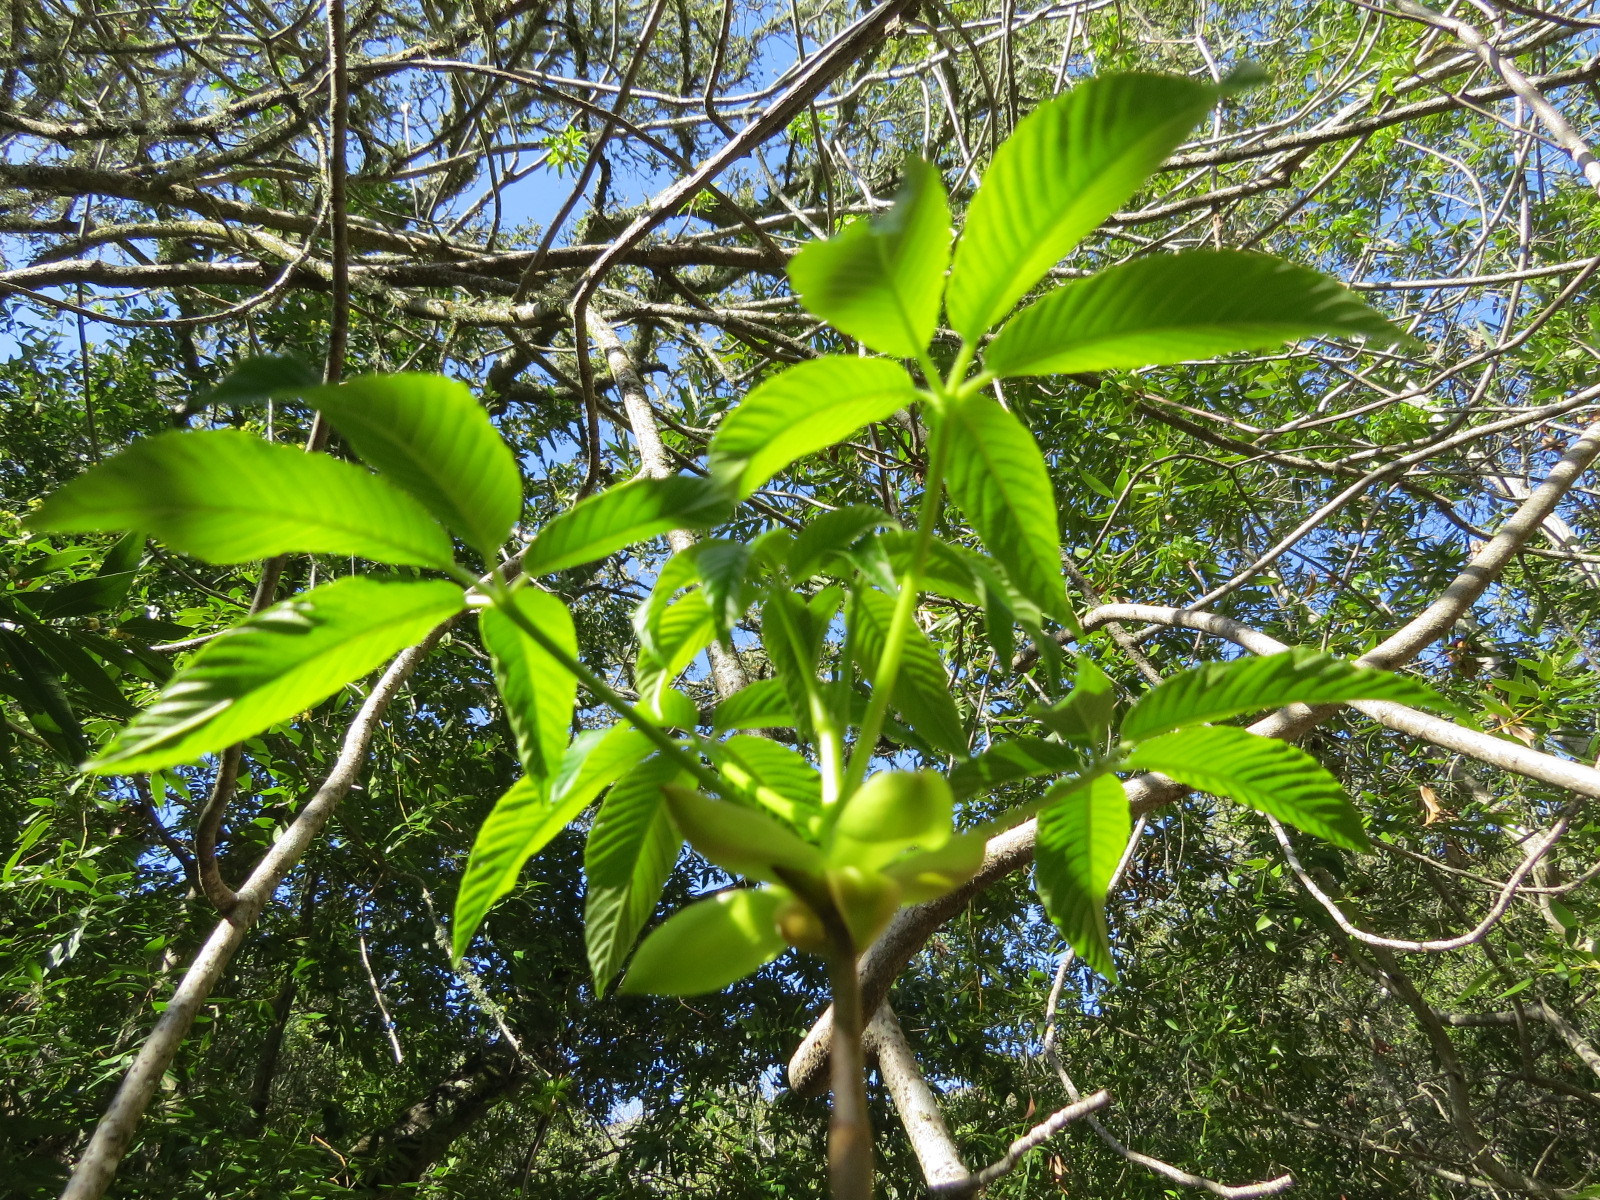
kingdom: Plantae
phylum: Tracheophyta
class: Magnoliopsida
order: Sapindales
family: Sapindaceae
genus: Aesculus
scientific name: Aesculus californica
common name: California buckeye
